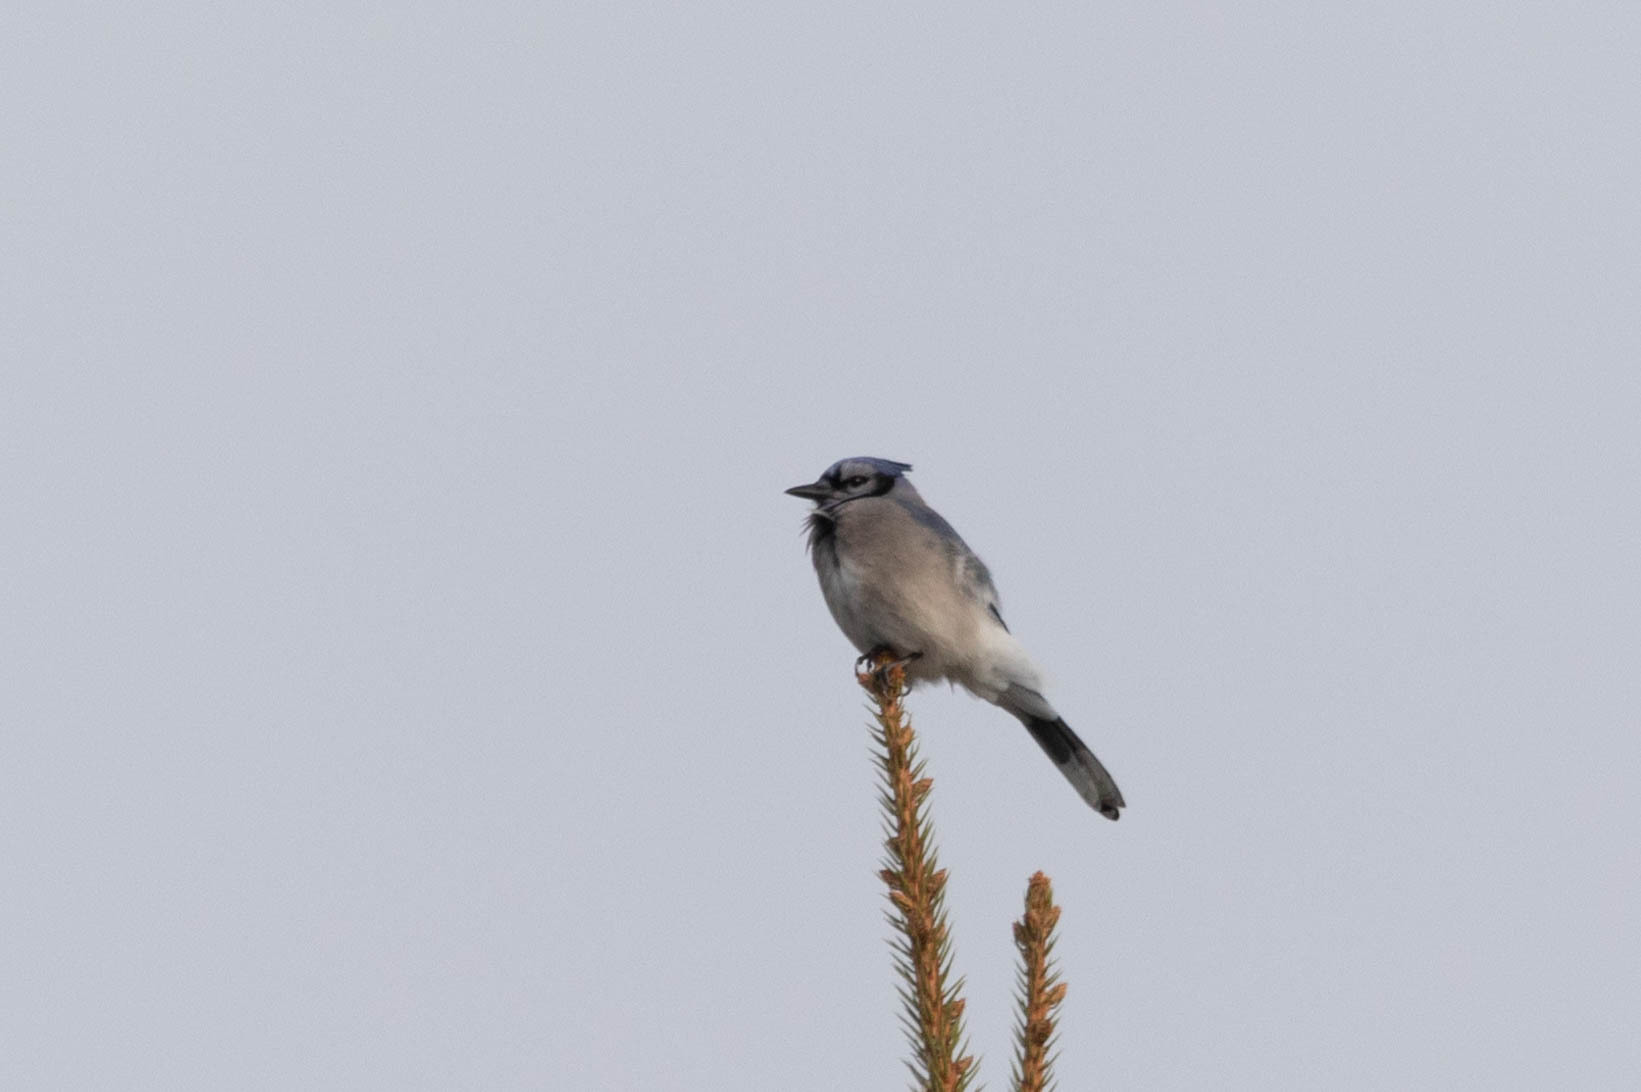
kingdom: Animalia
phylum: Chordata
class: Aves
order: Passeriformes
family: Corvidae
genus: Cyanocitta
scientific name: Cyanocitta cristata
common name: Blue jay
